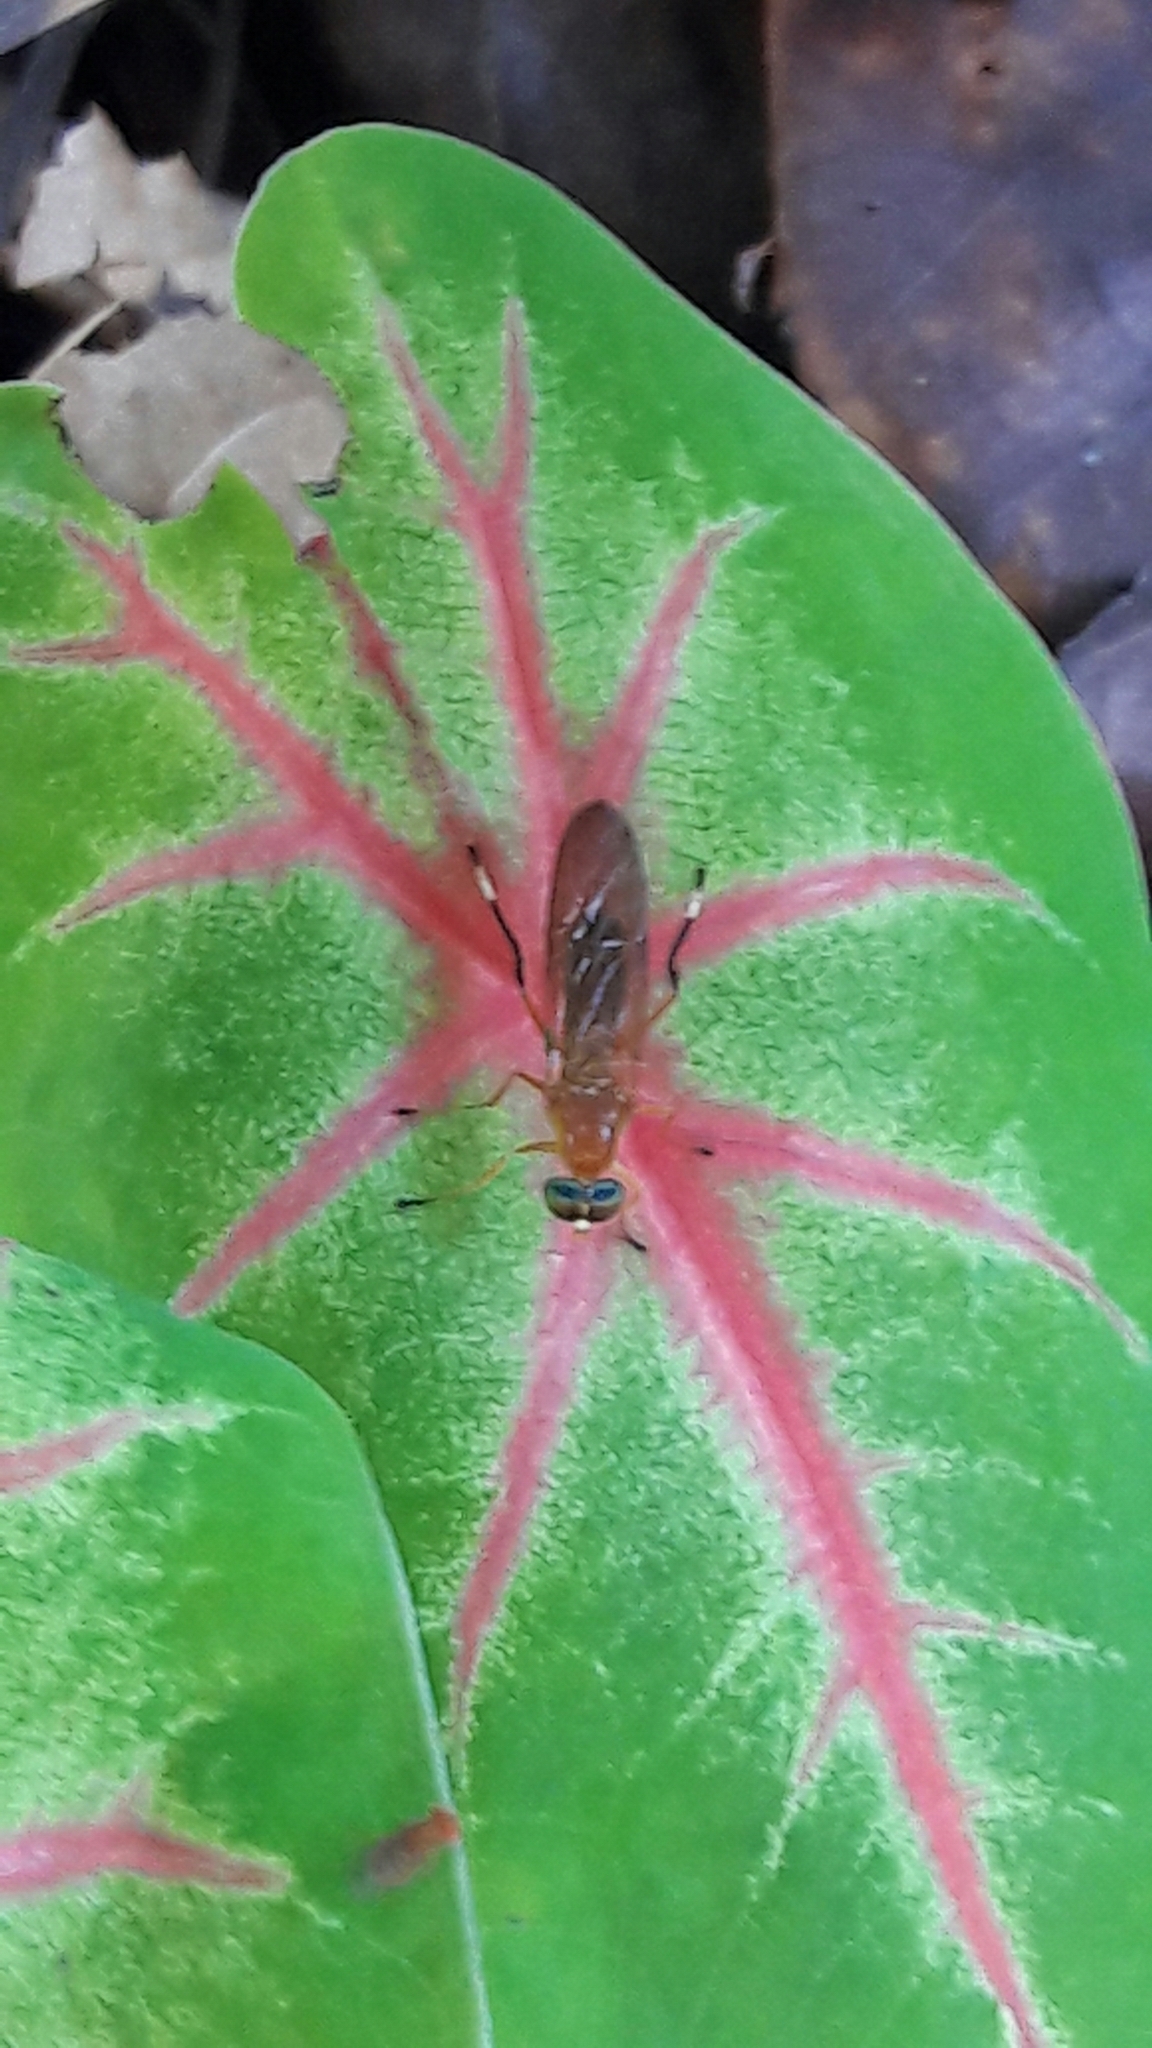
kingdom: Animalia
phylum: Arthropoda
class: Insecta
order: Diptera
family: Stratiomyidae
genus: Ptecticus
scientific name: Ptecticus testaceus
